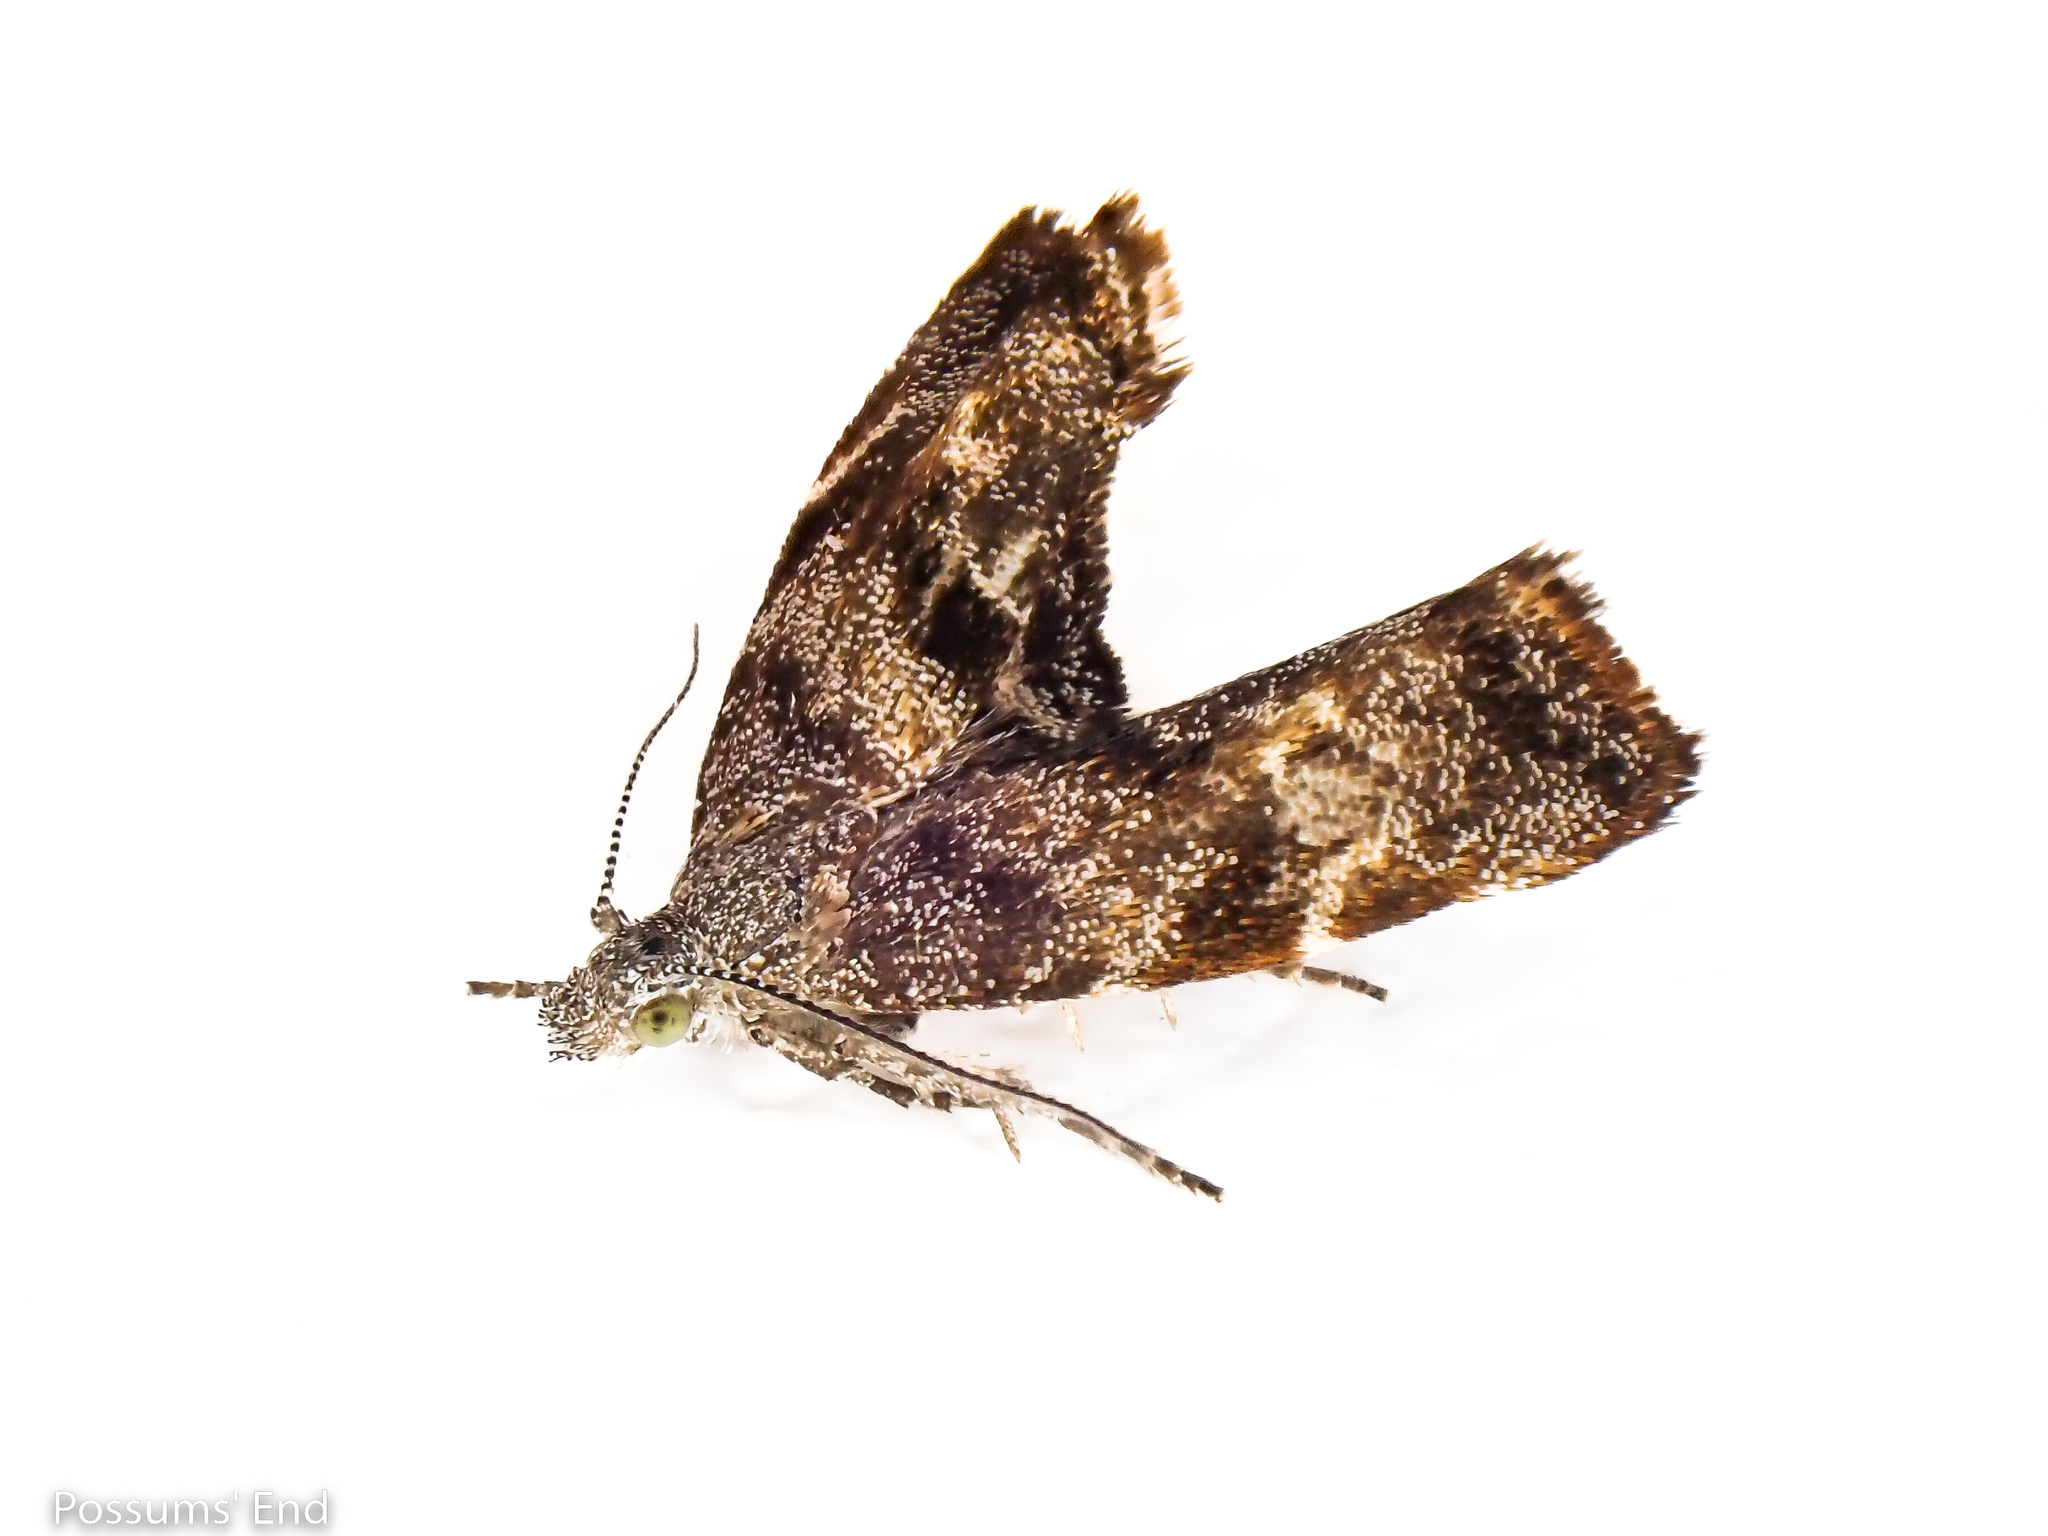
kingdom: Animalia
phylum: Arthropoda
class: Insecta
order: Lepidoptera
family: Choreutidae
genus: Asterivora
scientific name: Asterivora colpota
